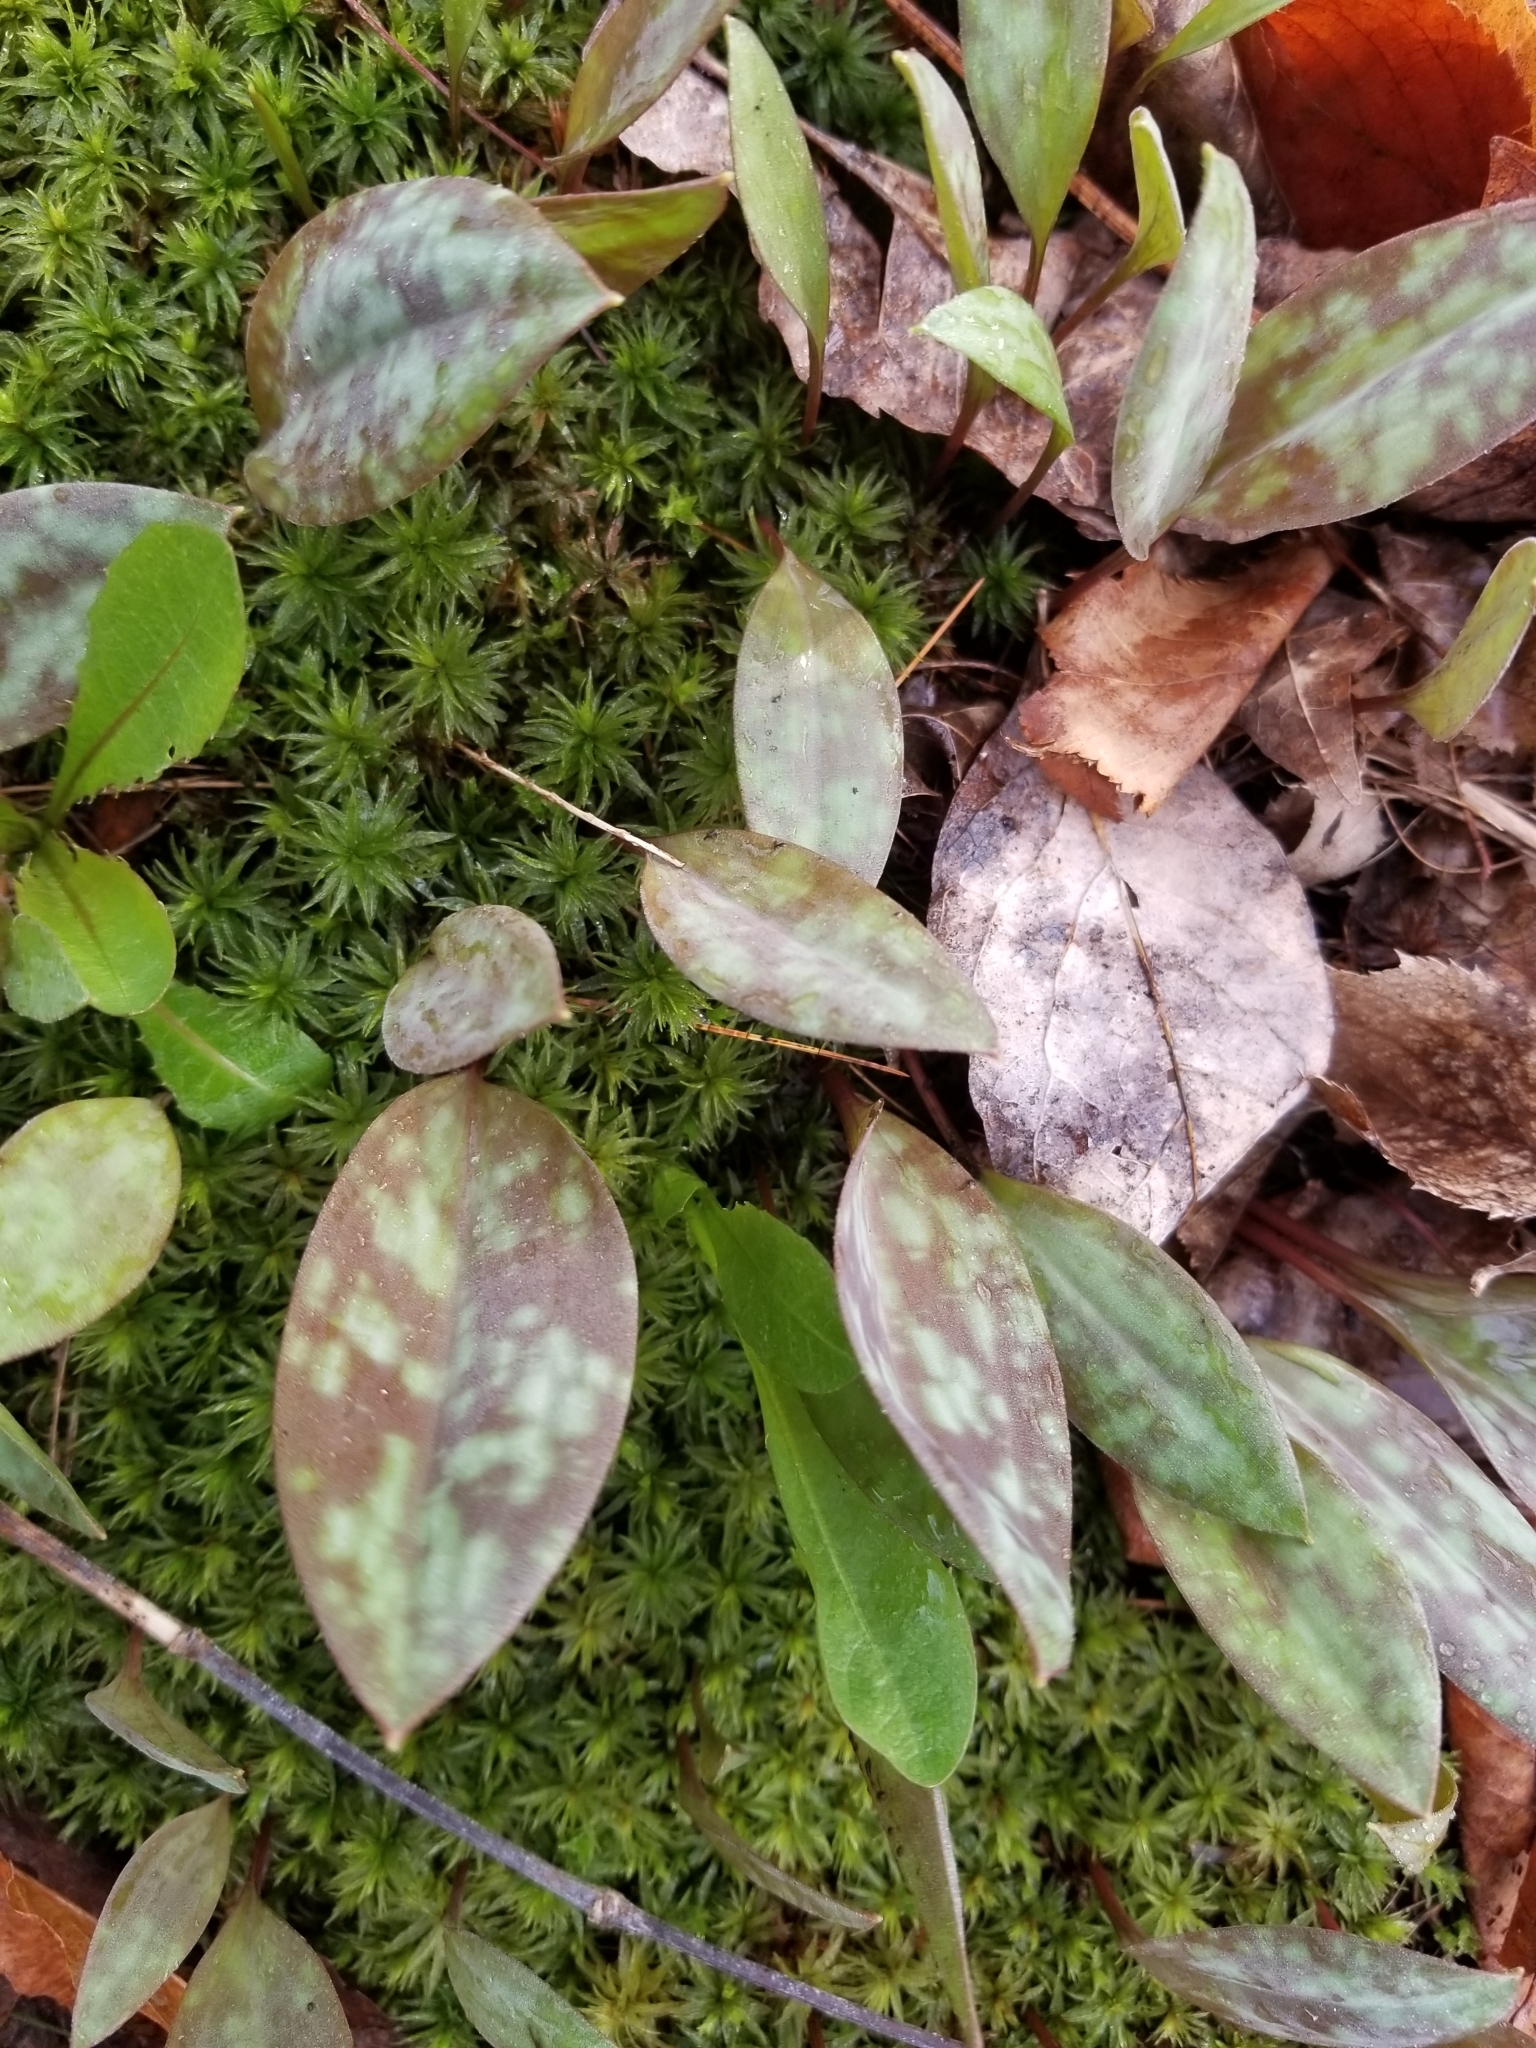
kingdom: Plantae
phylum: Tracheophyta
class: Liliopsida
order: Liliales
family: Liliaceae
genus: Erythronium
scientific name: Erythronium americanum
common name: Yellow adder's-tongue
